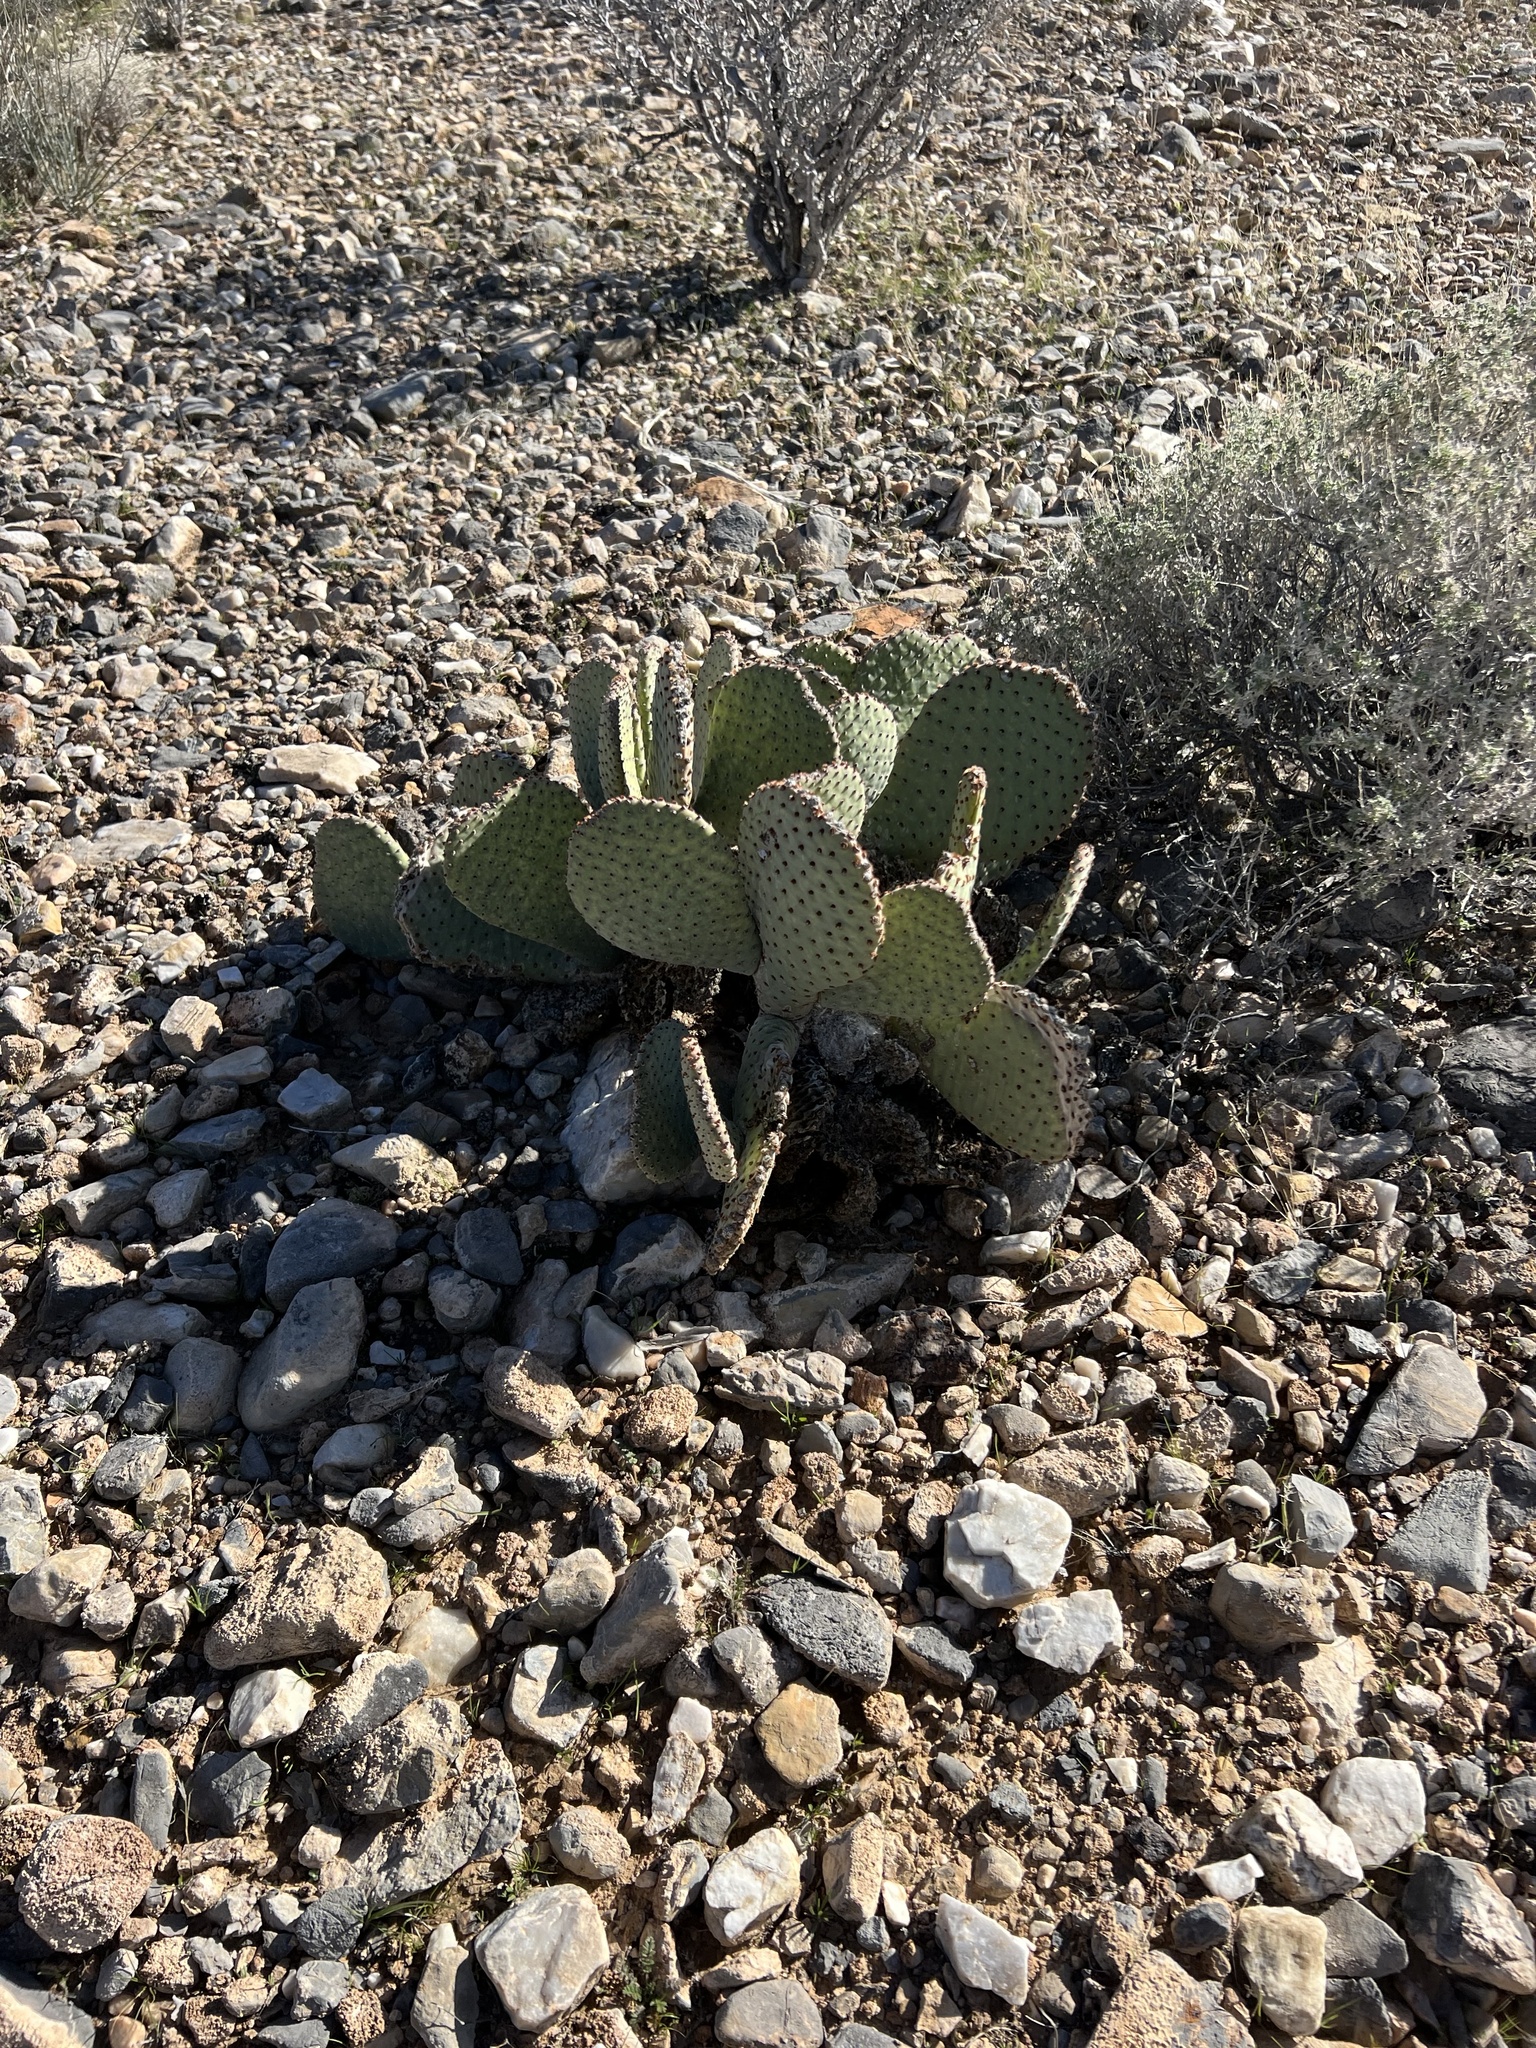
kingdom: Plantae
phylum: Tracheophyta
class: Magnoliopsida
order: Caryophyllales
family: Cactaceae
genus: Opuntia
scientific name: Opuntia basilaris
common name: Beavertail prickly-pear
